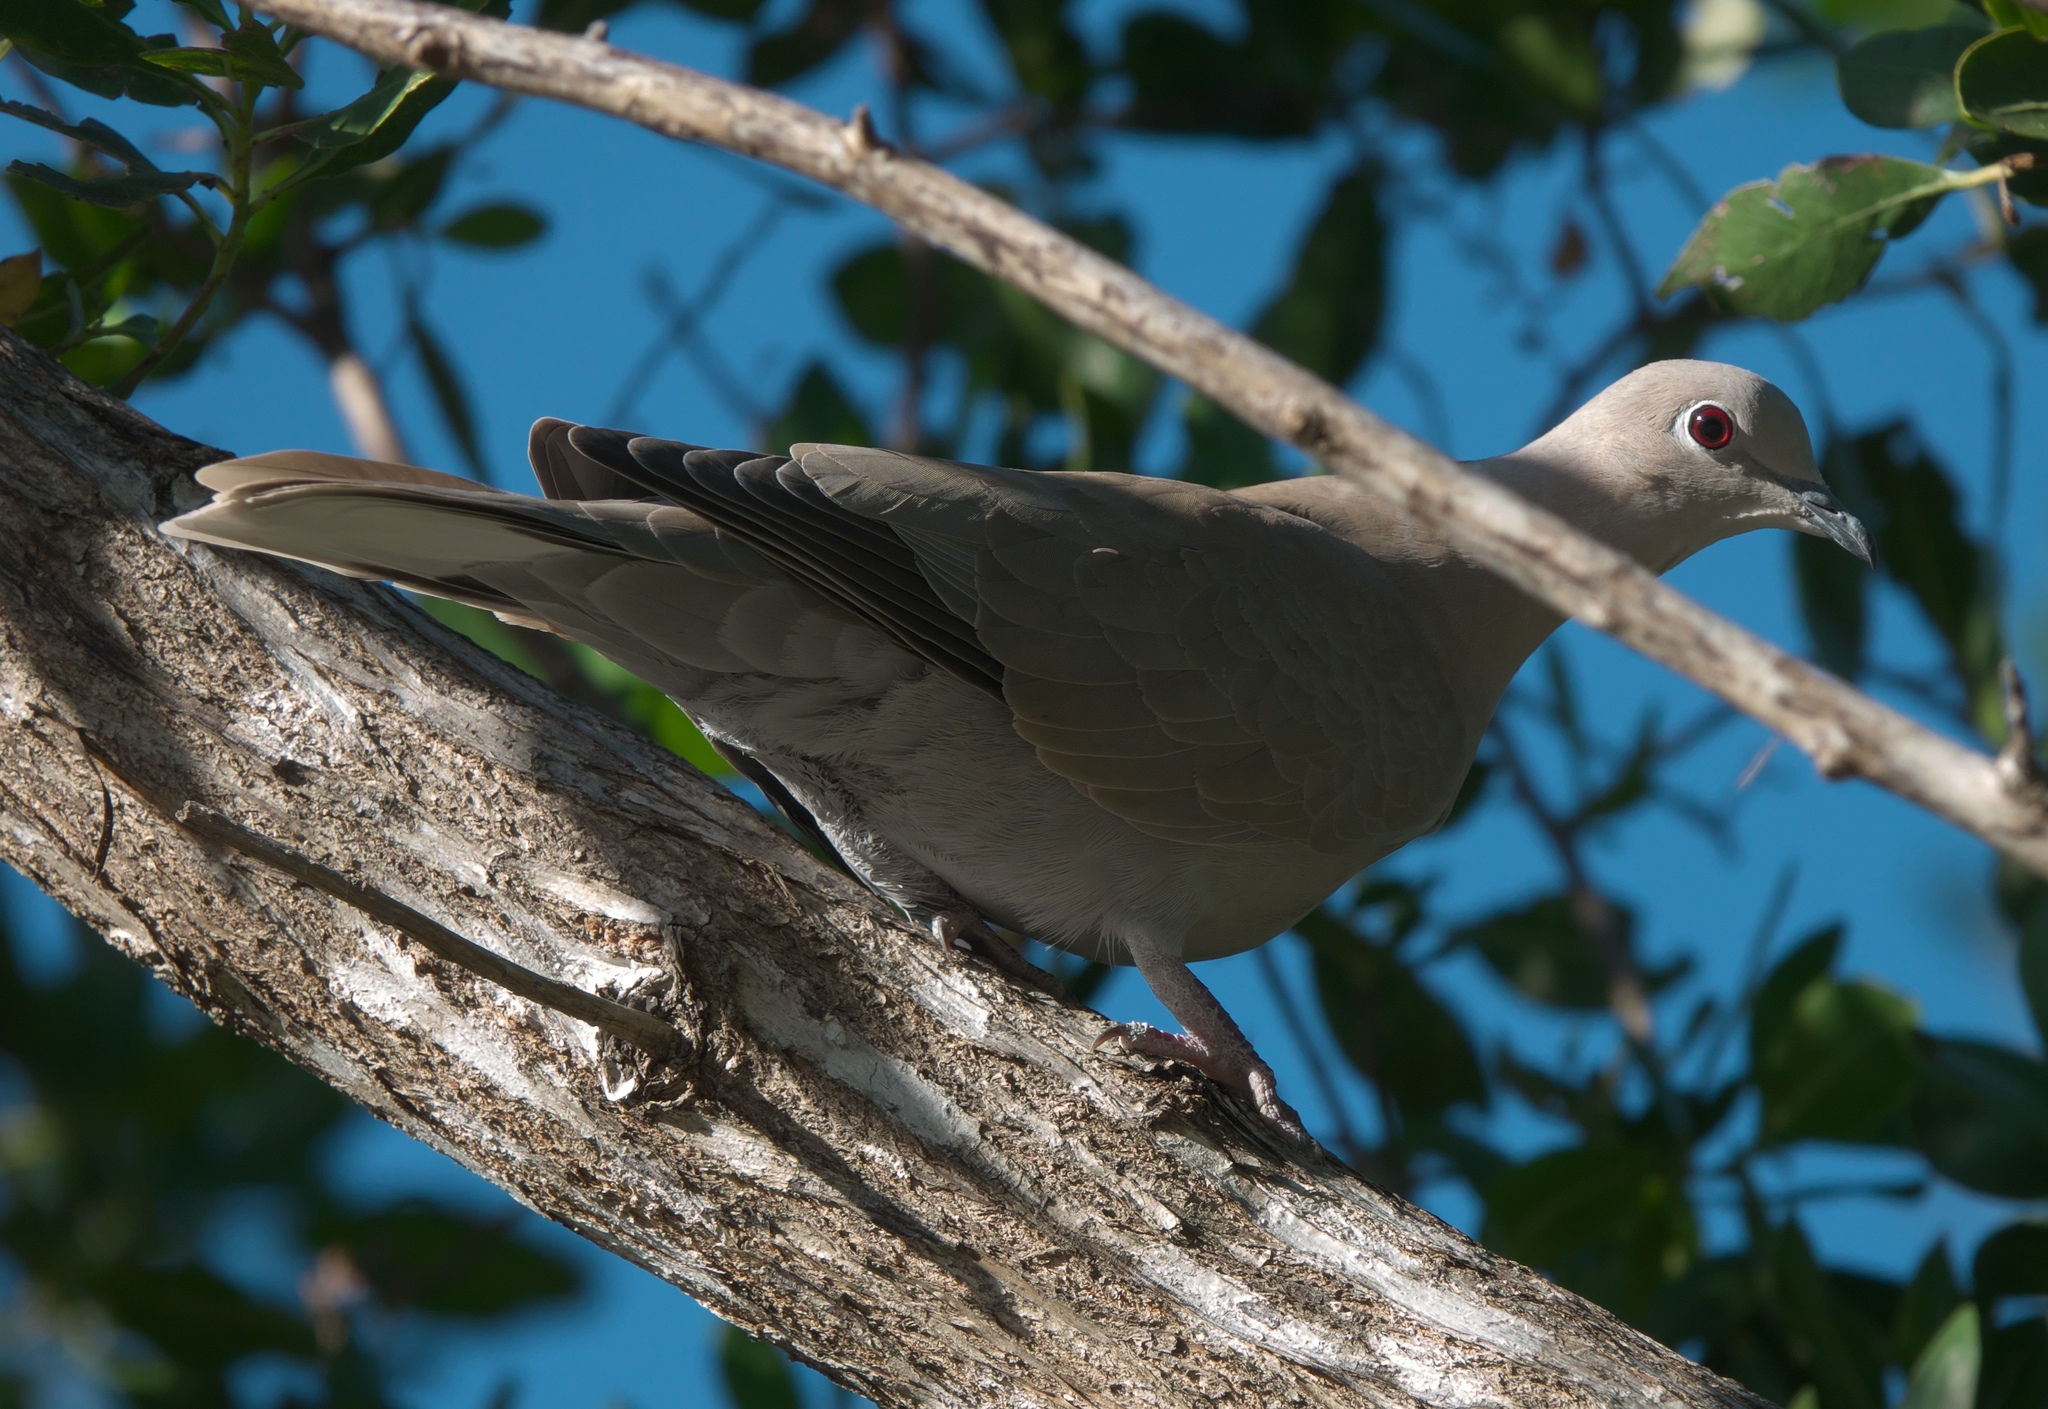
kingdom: Animalia
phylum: Chordata
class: Aves
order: Columbiformes
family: Columbidae
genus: Streptopelia
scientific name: Streptopelia decaocto
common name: Eurasian collared dove
